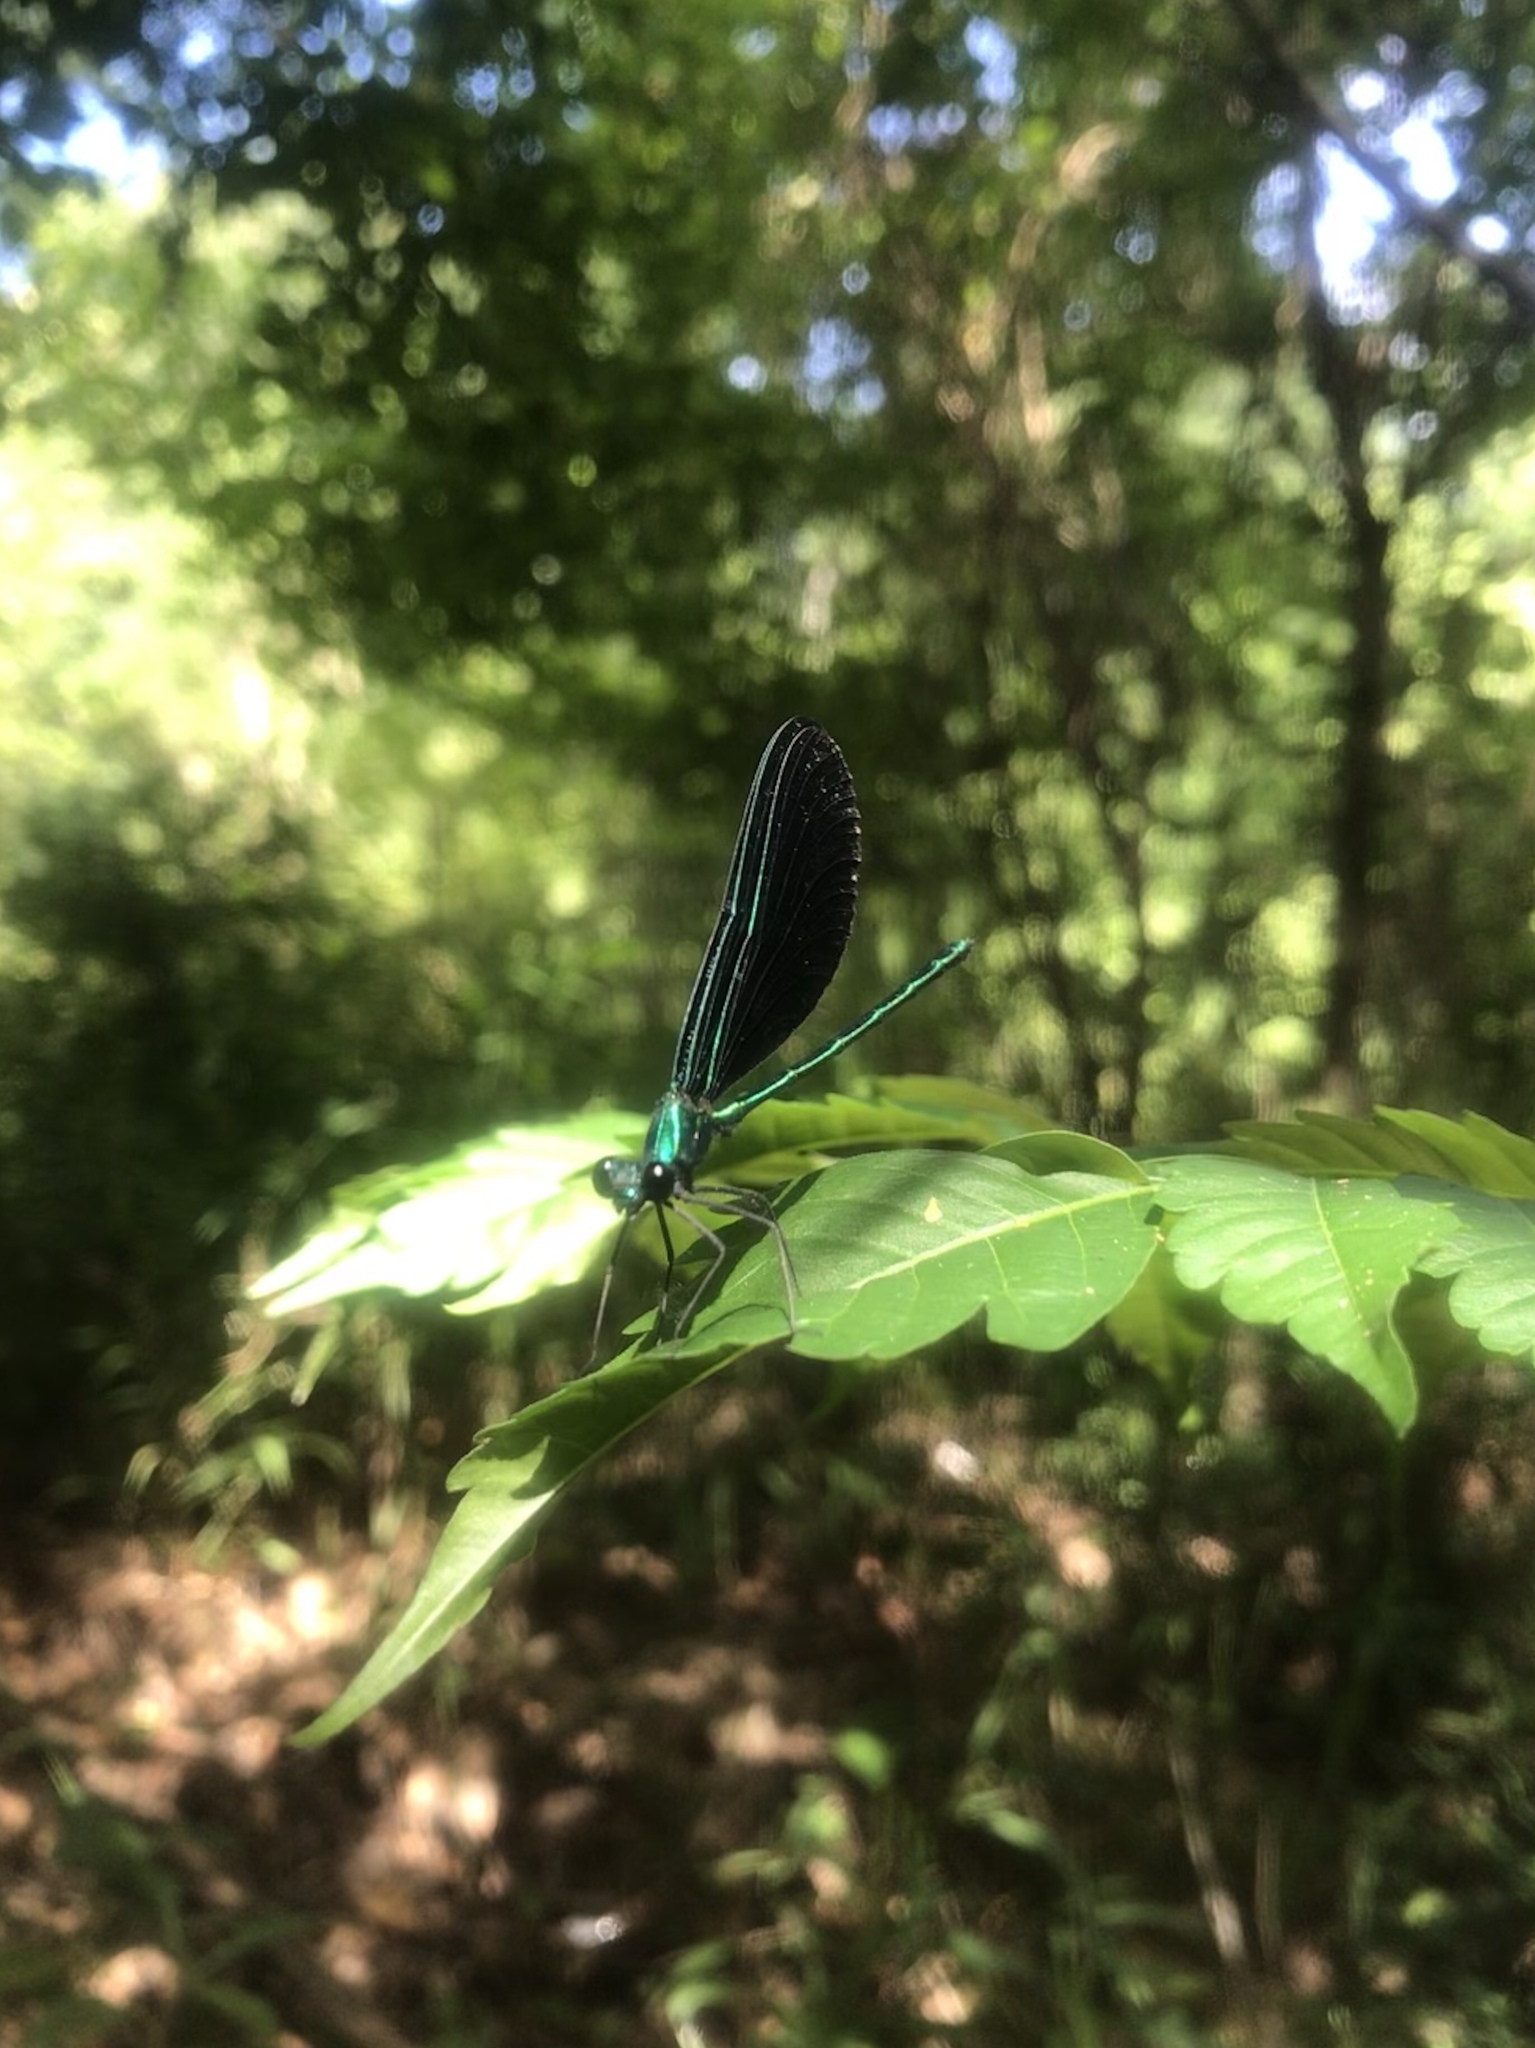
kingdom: Animalia
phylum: Arthropoda
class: Insecta
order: Odonata
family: Calopterygidae
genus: Calopteryx
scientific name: Calopteryx maculata
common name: Ebony jewelwing
